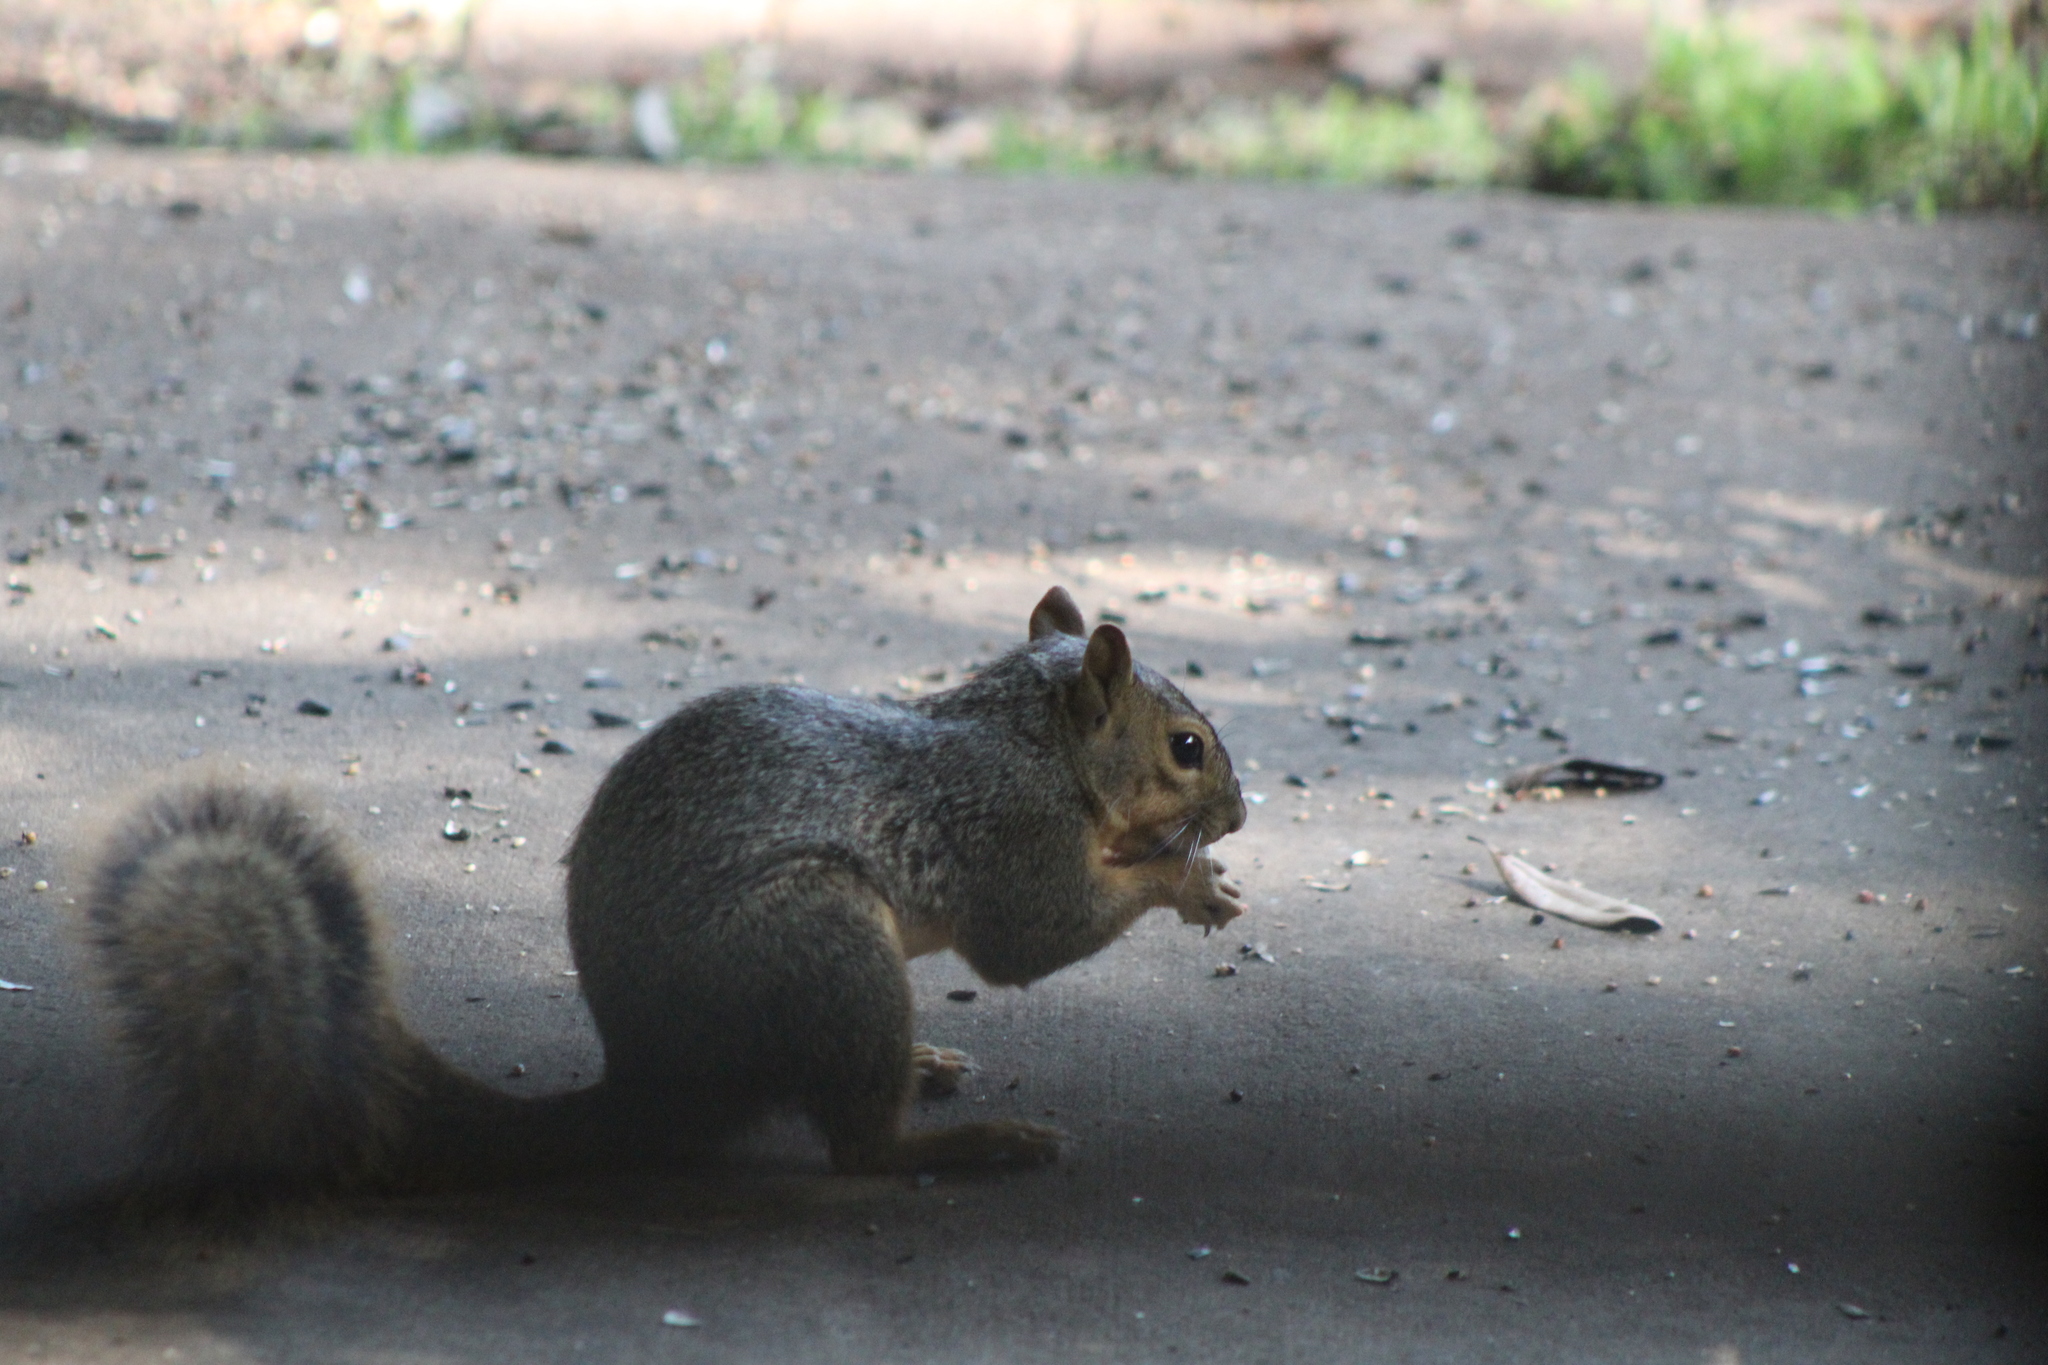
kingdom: Animalia
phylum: Chordata
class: Mammalia
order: Rodentia
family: Sciuridae
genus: Sciurus
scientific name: Sciurus niger
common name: Fox squirrel
